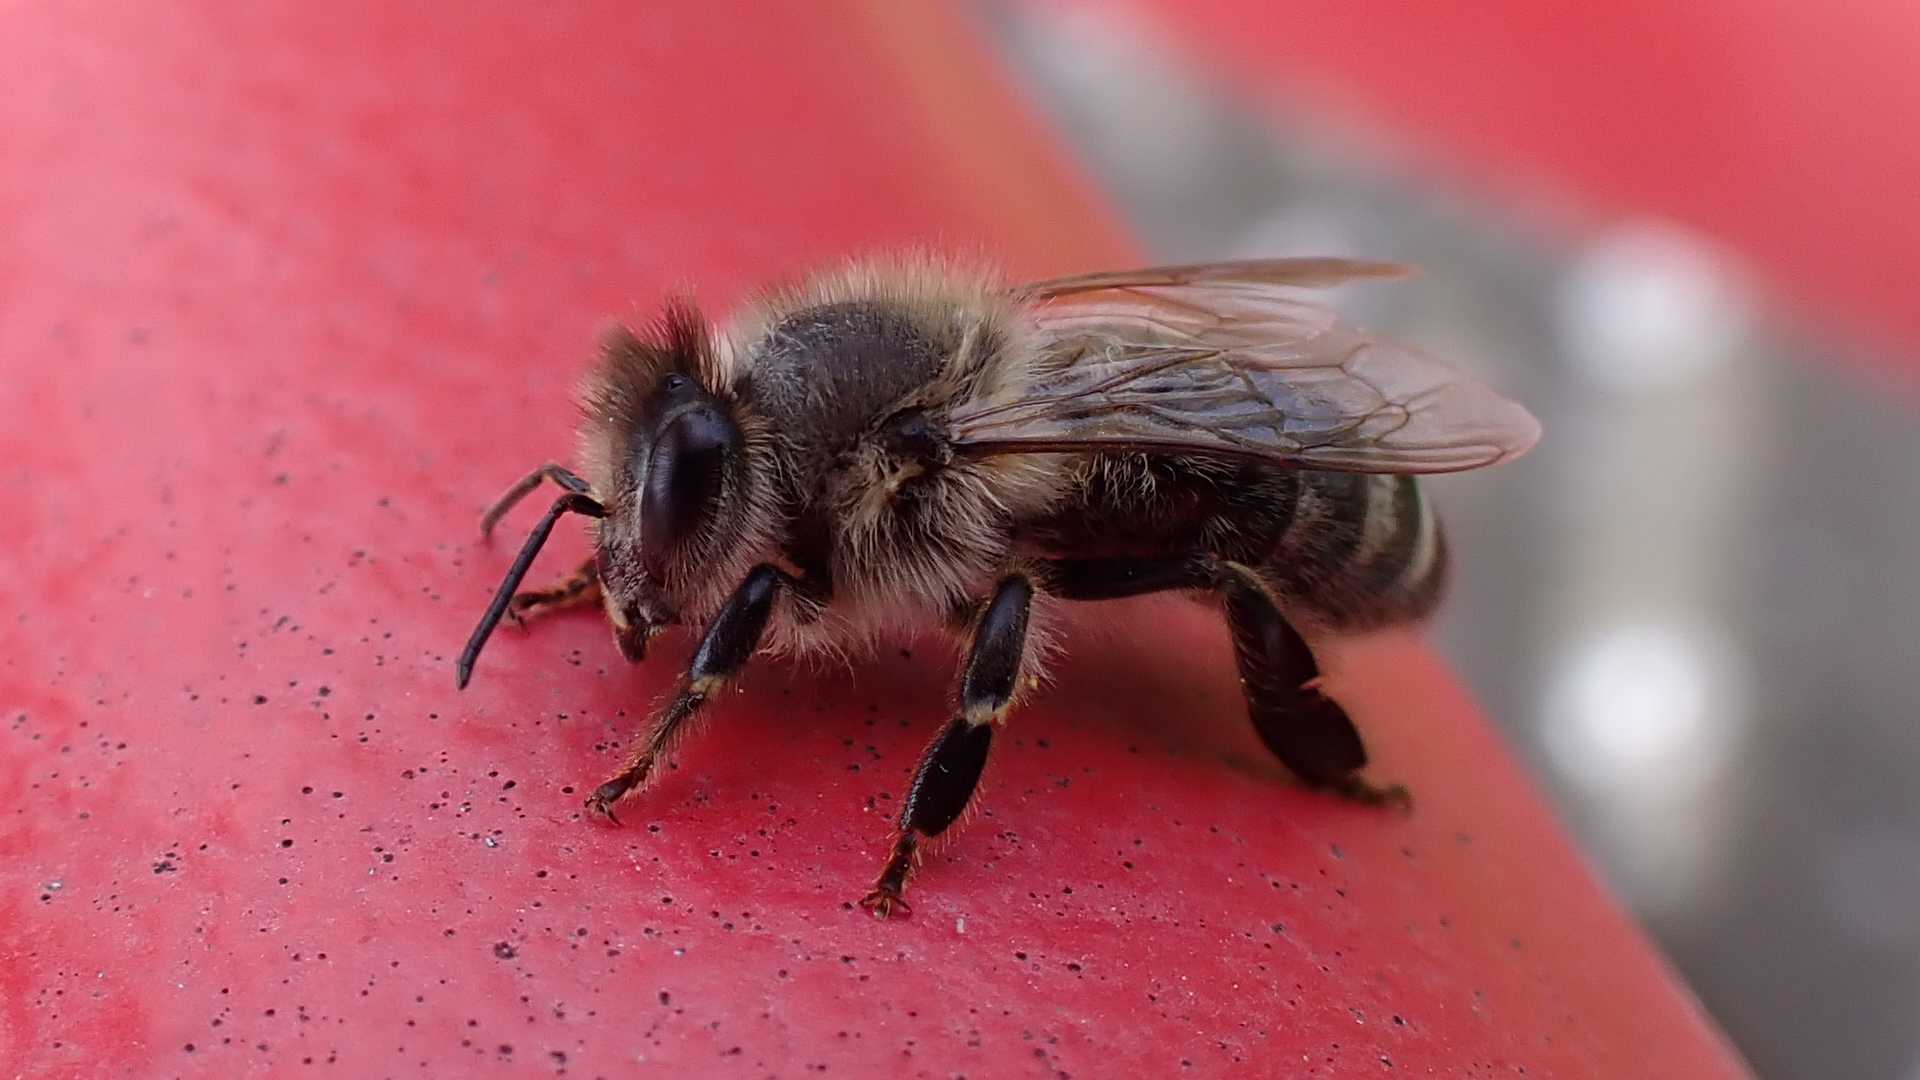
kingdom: Animalia
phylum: Arthropoda
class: Insecta
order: Hymenoptera
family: Apidae
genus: Apis
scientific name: Apis mellifera
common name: Honey bee
